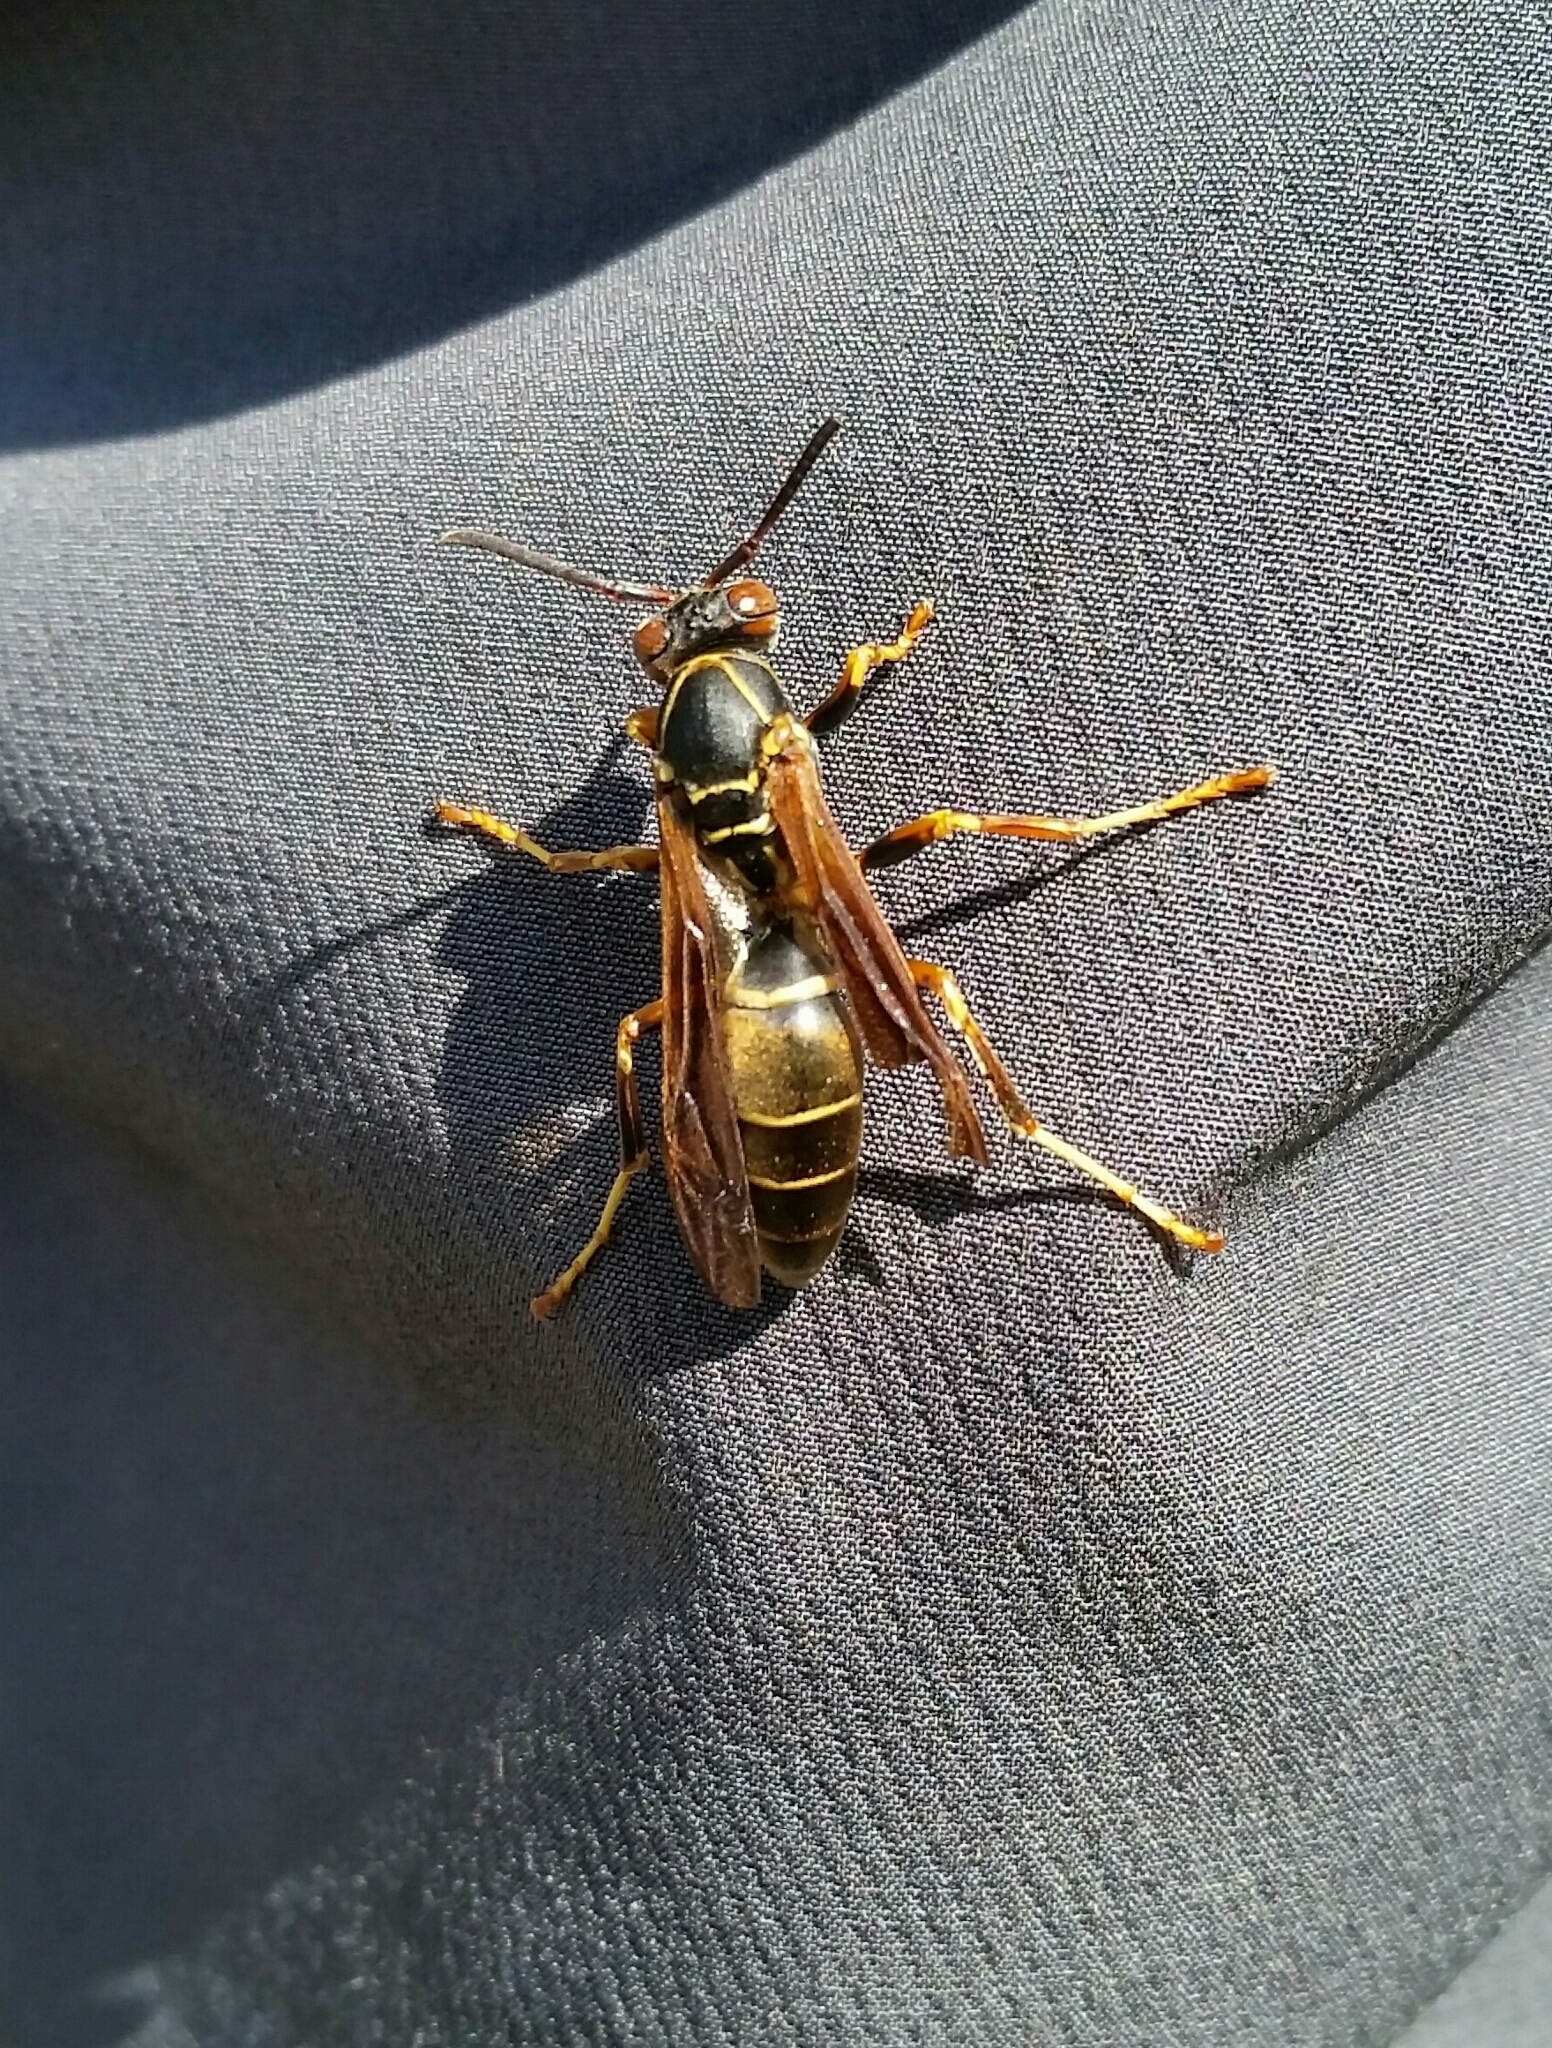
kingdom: Animalia
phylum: Arthropoda
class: Insecta
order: Hymenoptera
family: Eumenidae
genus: Polistes
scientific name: Polistes fuscatus
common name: Dark paper wasp
